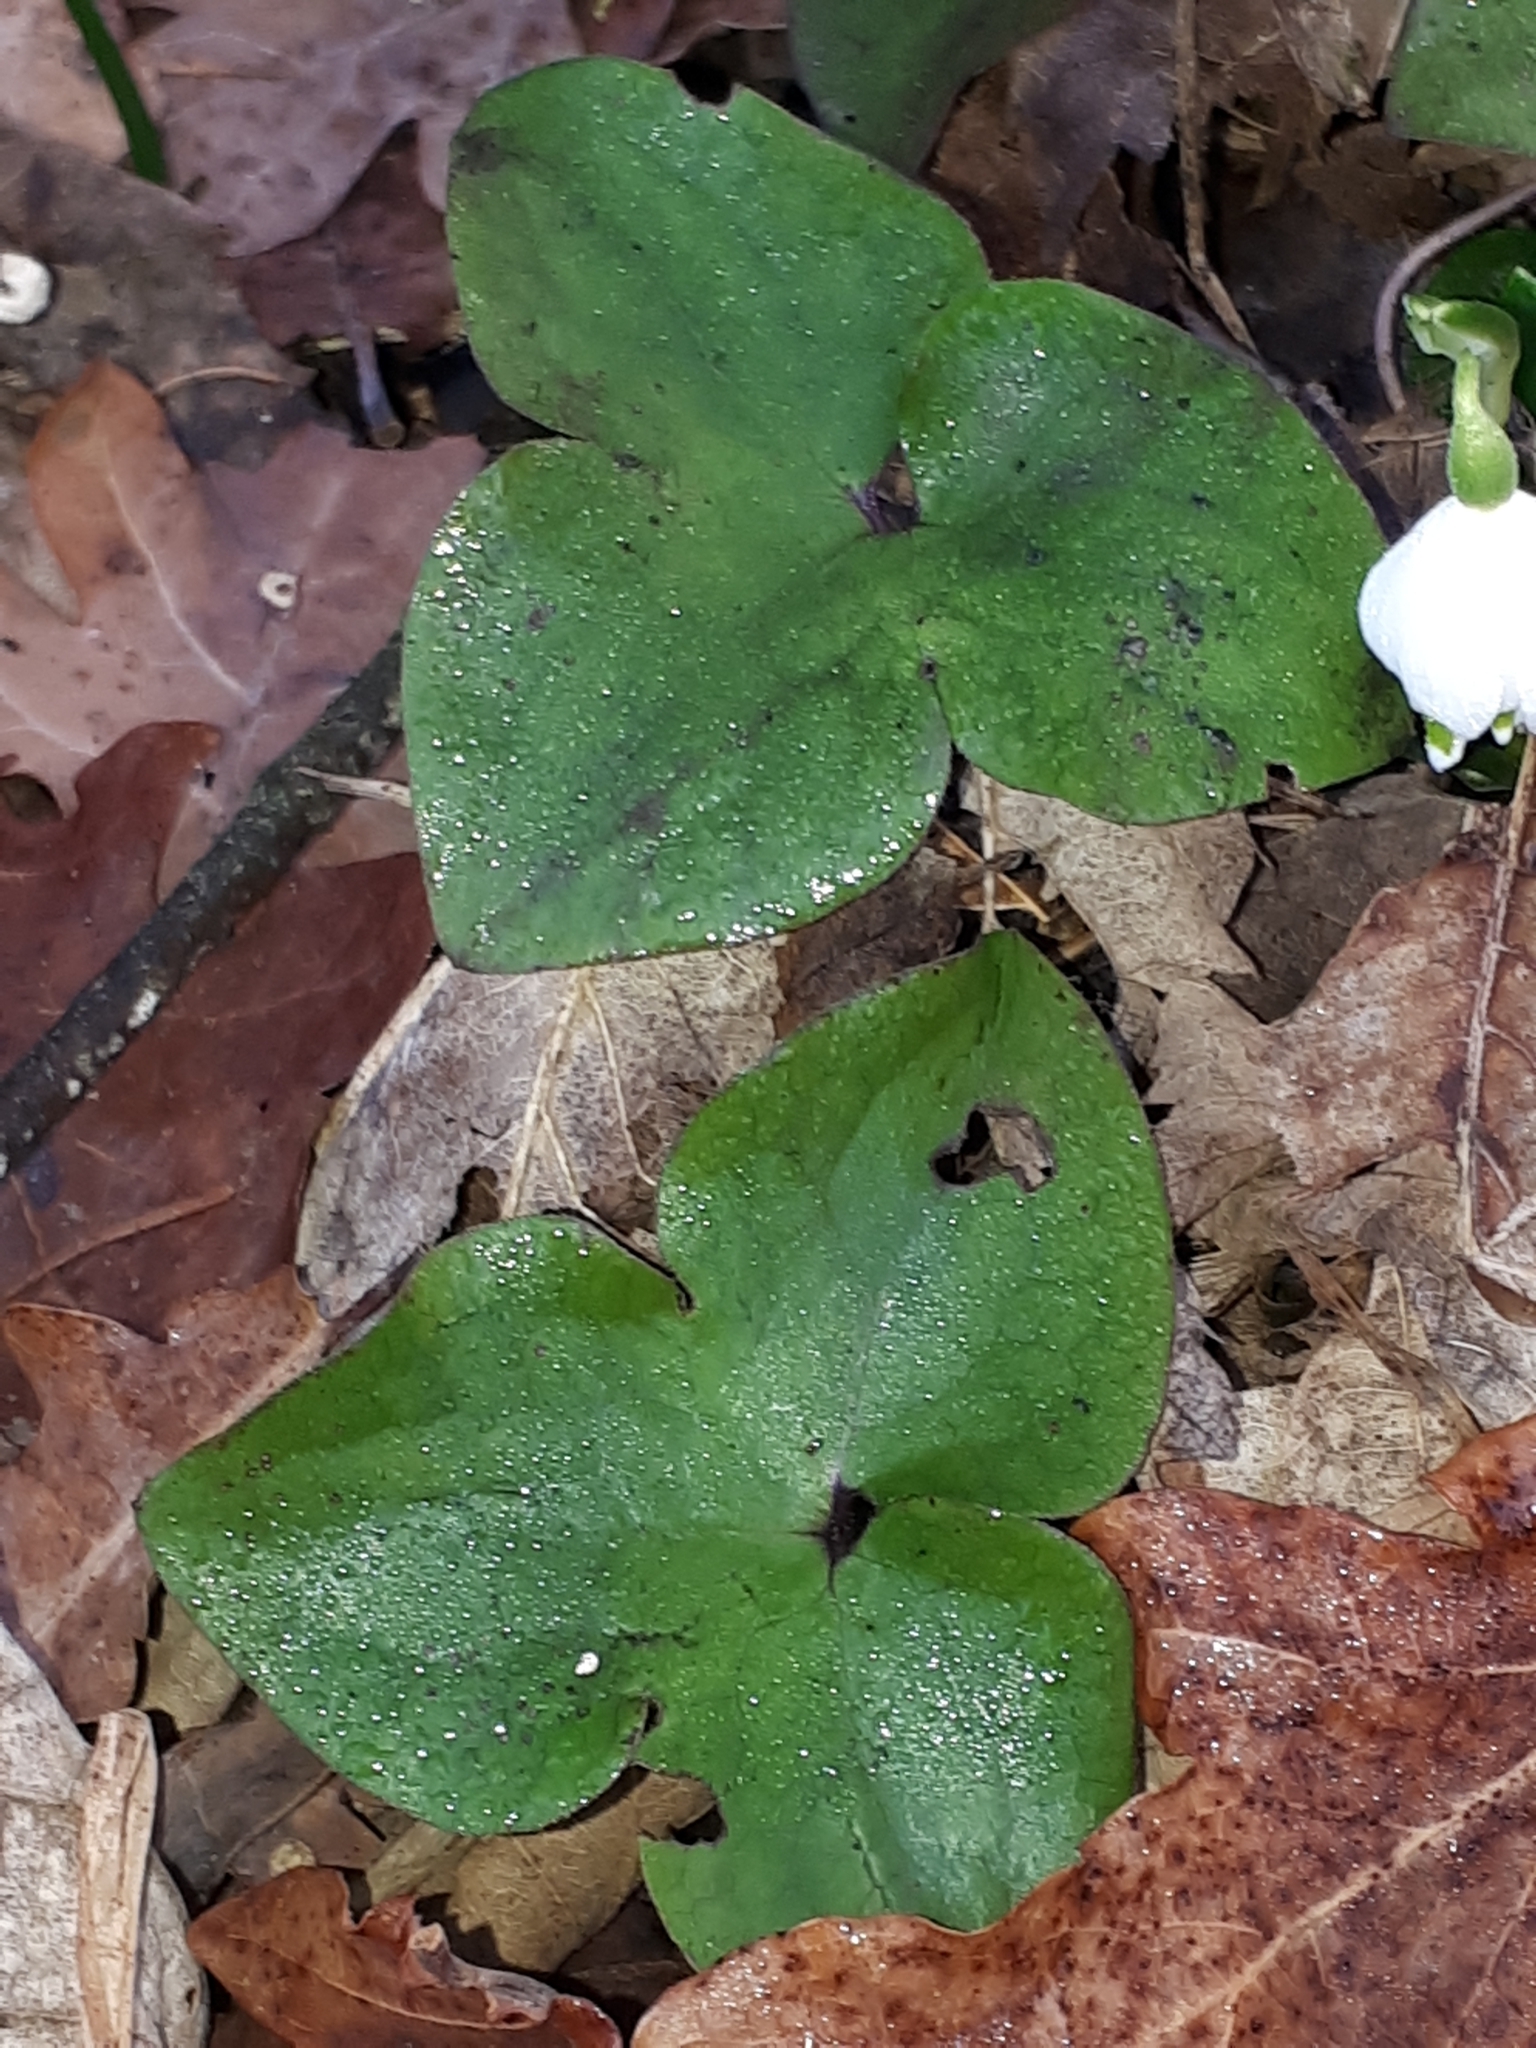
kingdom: Plantae
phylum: Tracheophyta
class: Magnoliopsida
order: Ranunculales
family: Ranunculaceae
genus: Hepatica
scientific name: Hepatica nobilis
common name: Liverleaf
